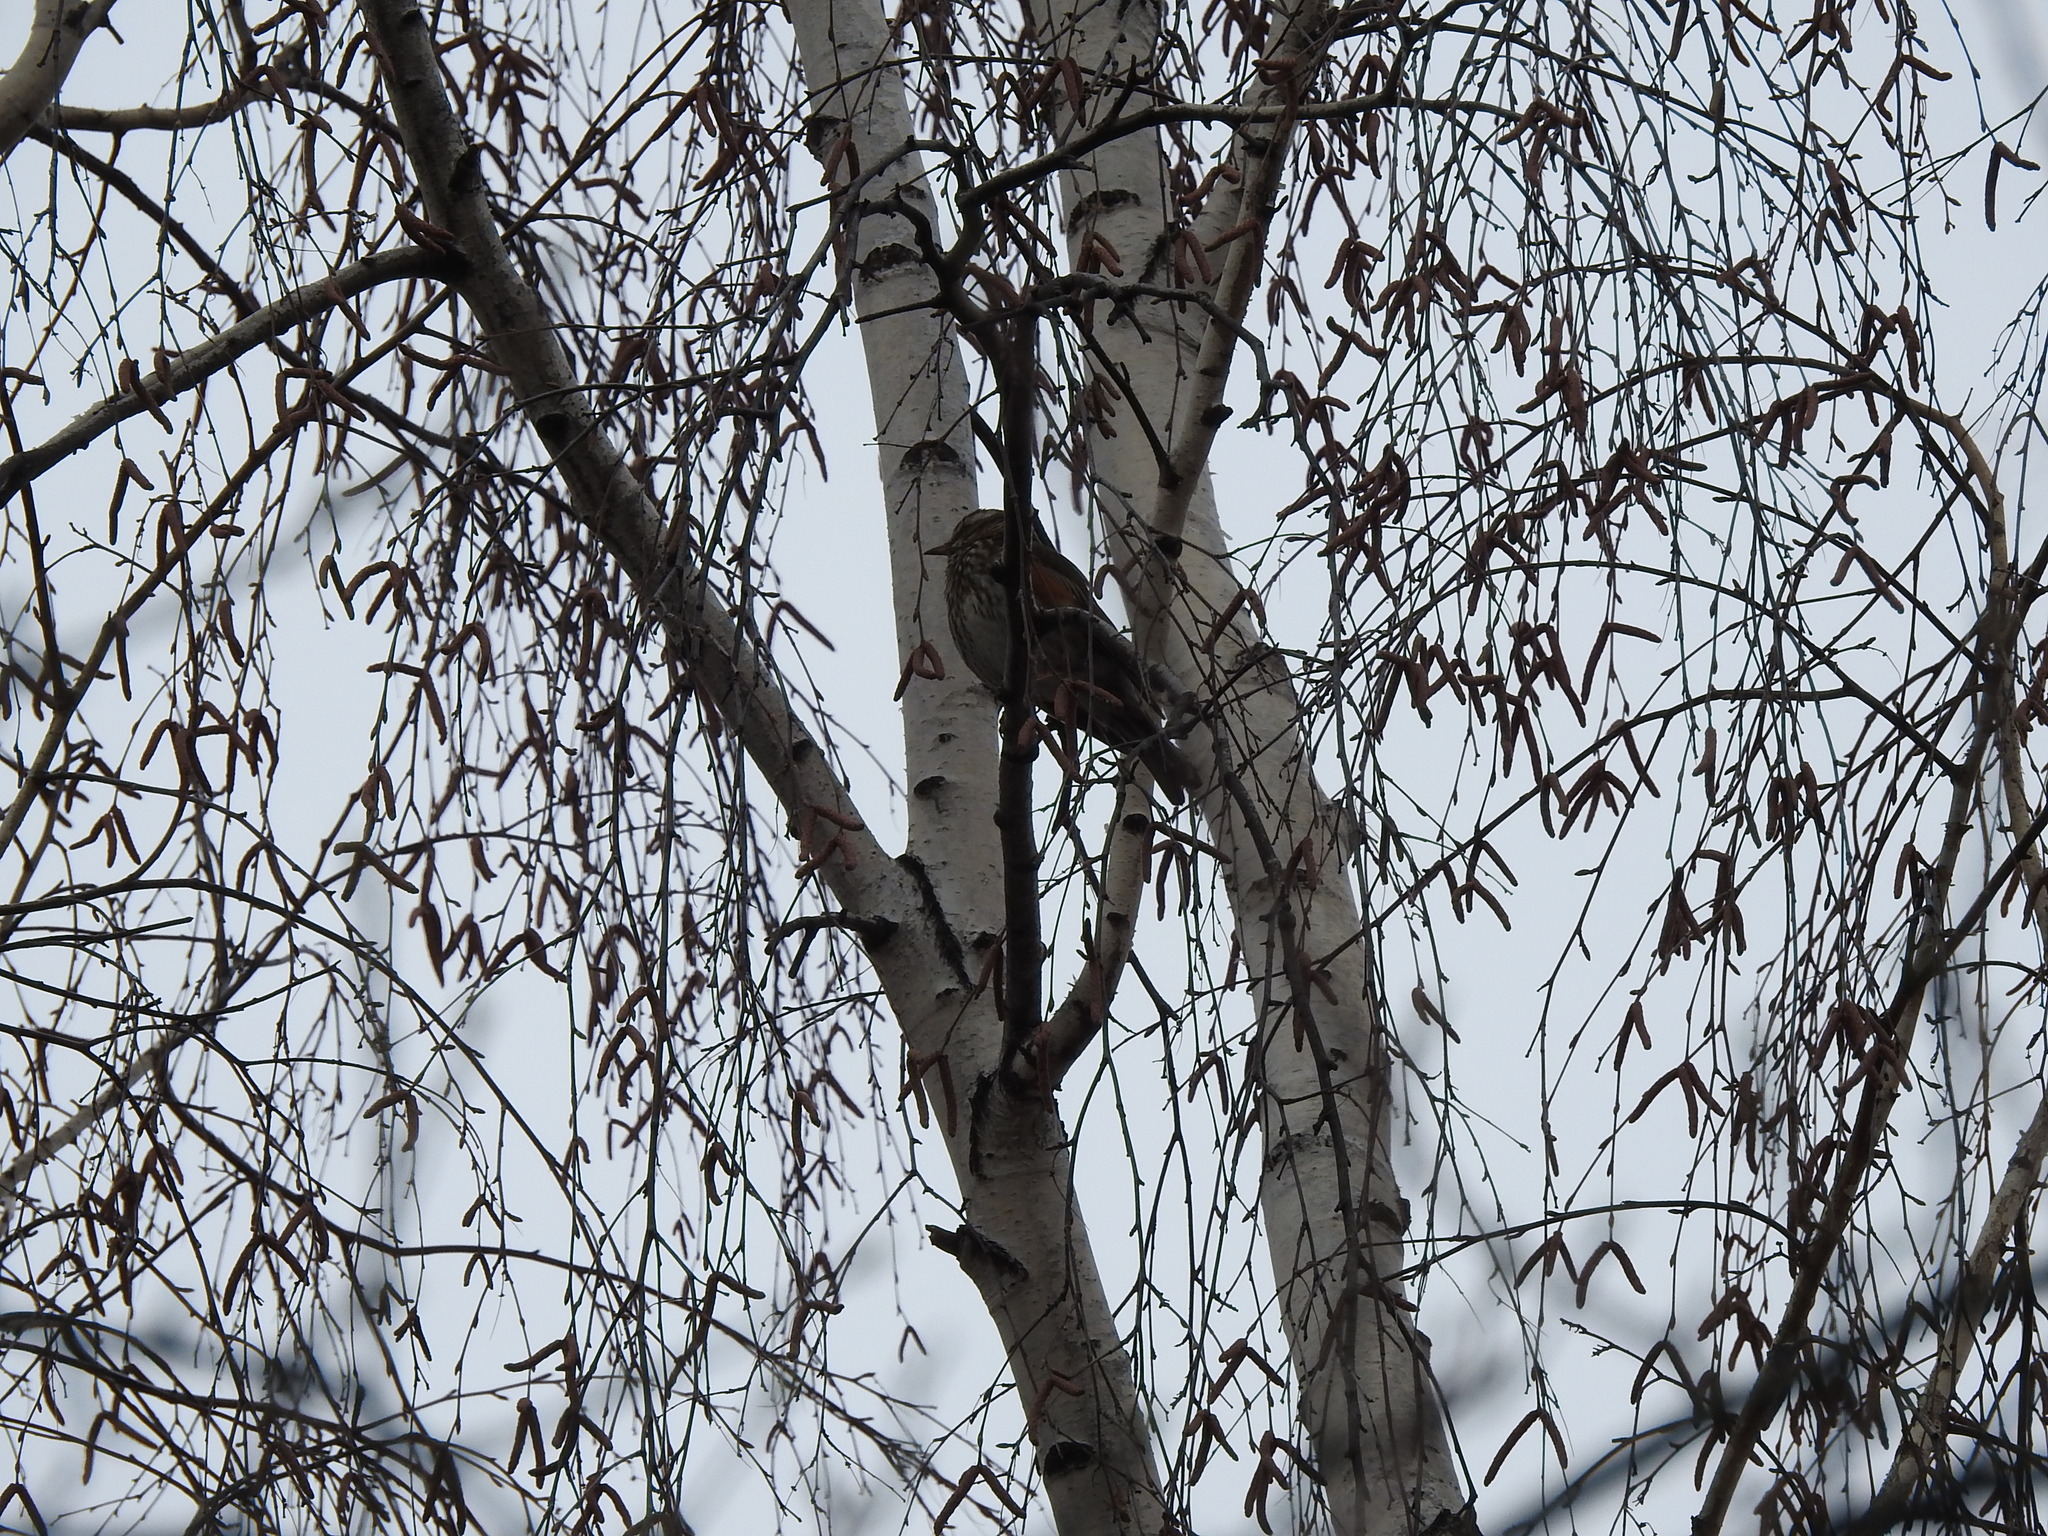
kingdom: Animalia
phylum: Chordata
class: Aves
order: Passeriformes
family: Turdidae
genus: Turdus
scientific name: Turdus iliacus
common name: Redwing
